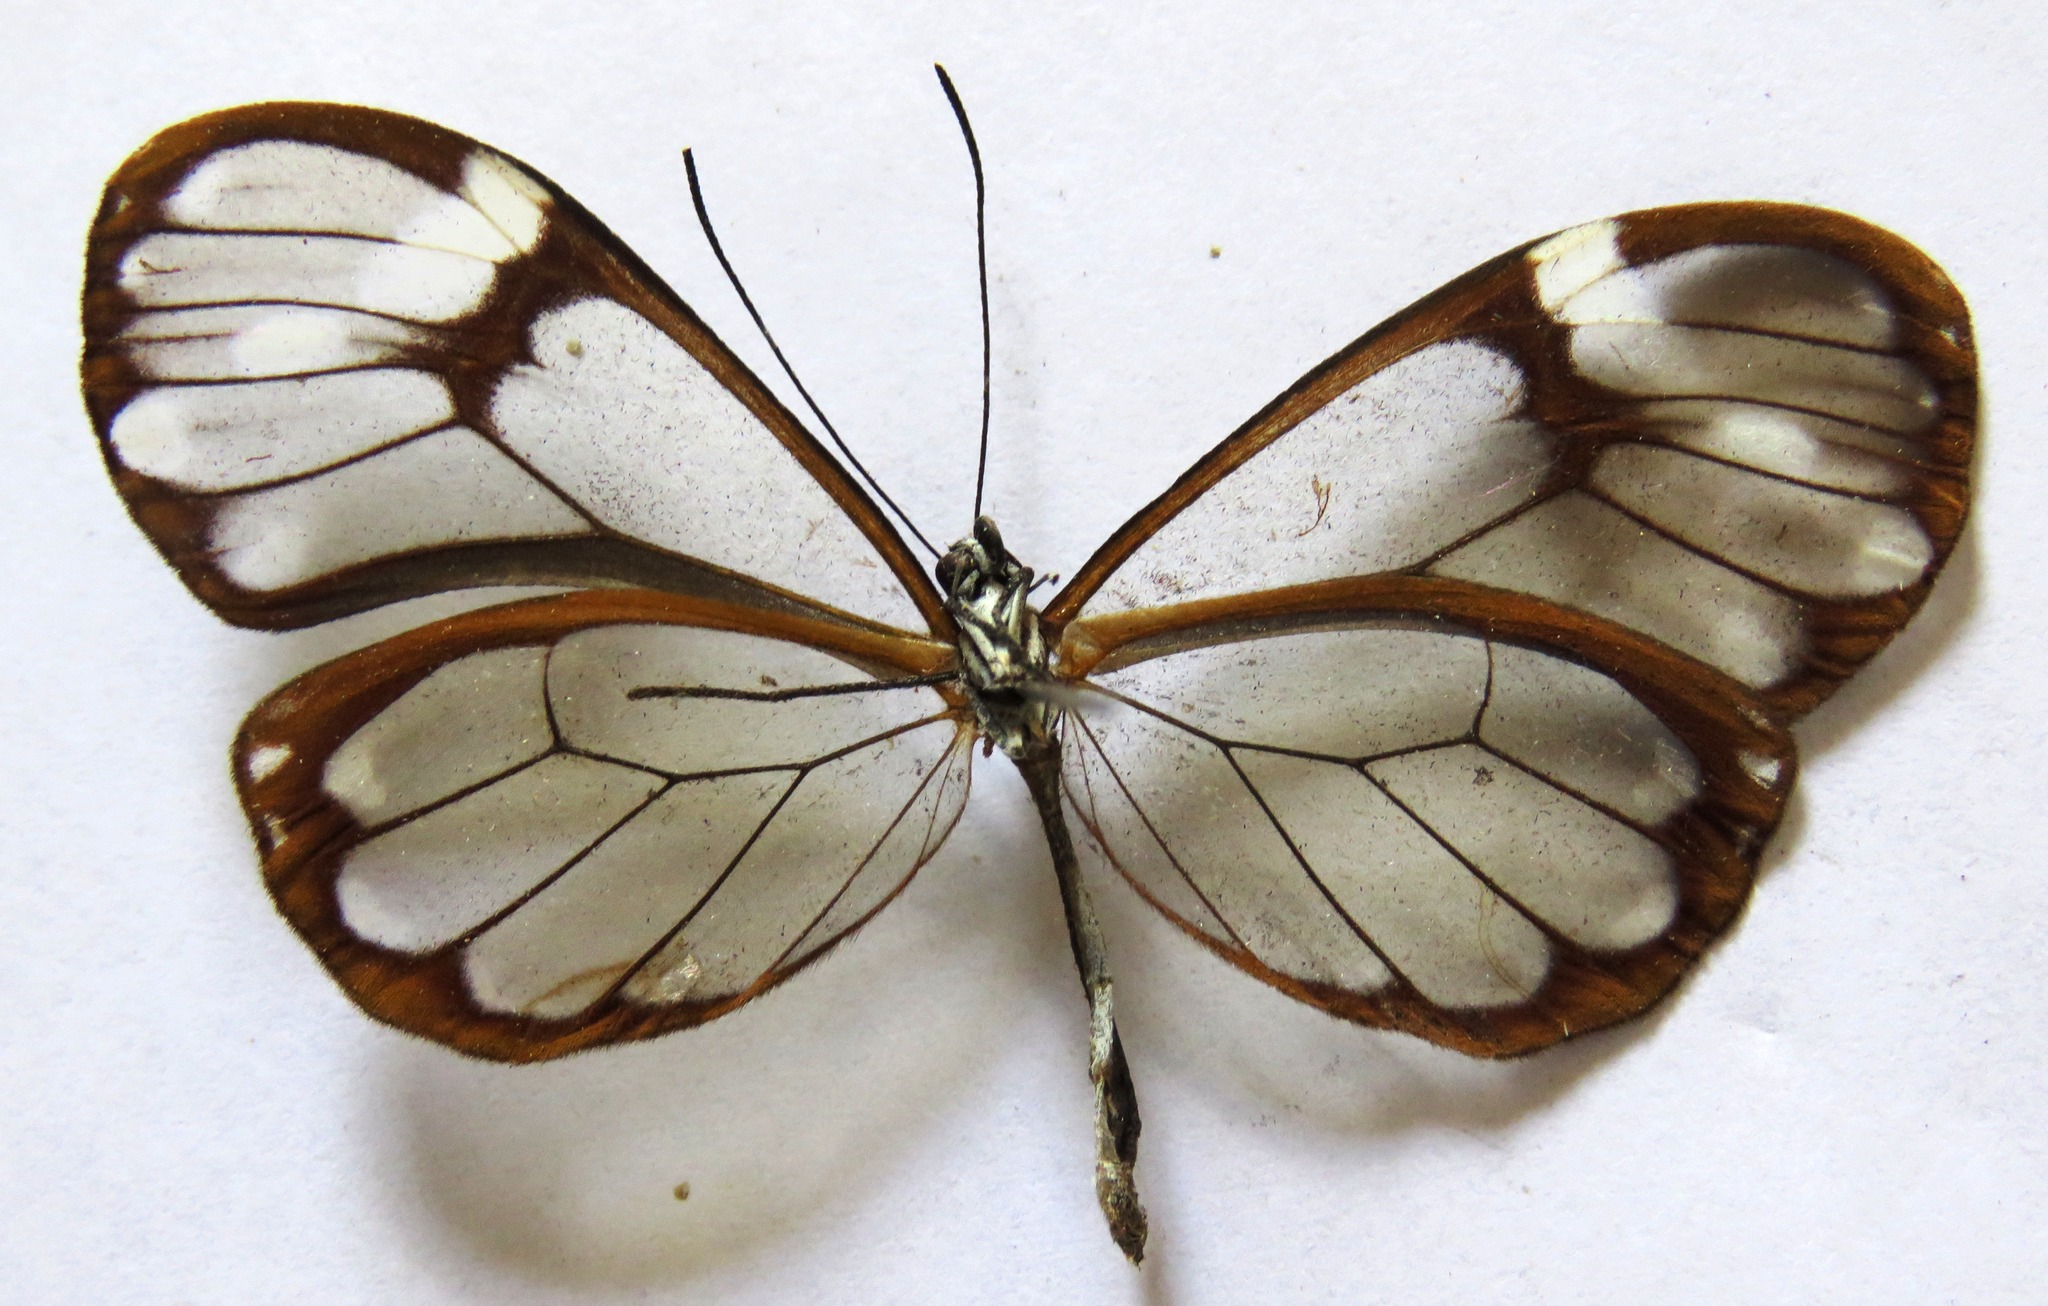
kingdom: Animalia
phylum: Arthropoda
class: Insecta
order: Lepidoptera
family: Nymphalidae
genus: Godyris
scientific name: Godyris nero
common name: Nero clearwing
